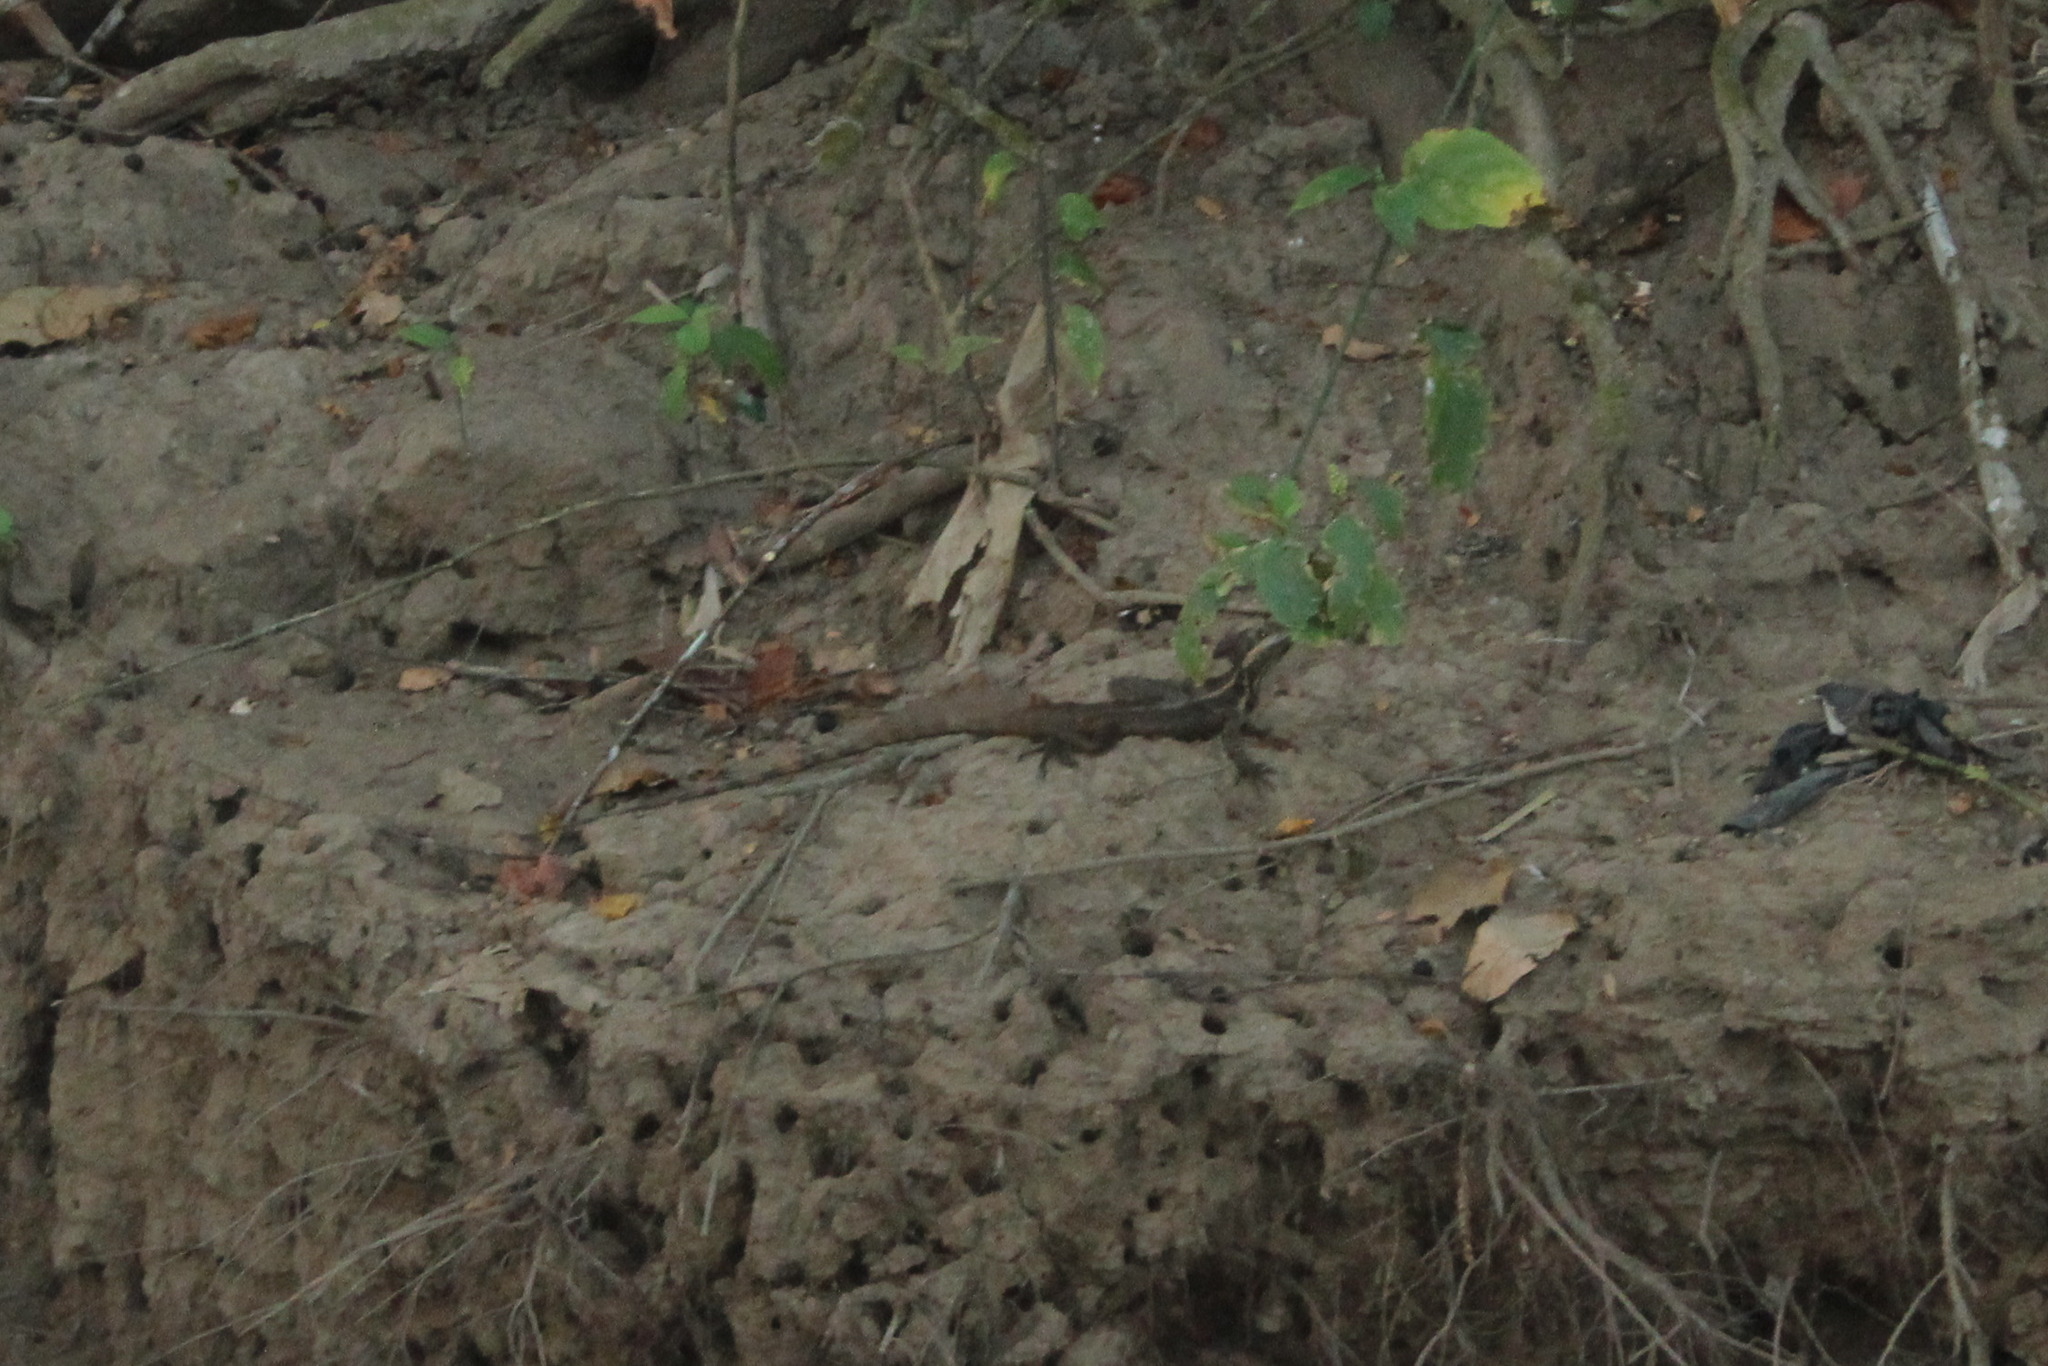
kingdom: Animalia
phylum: Chordata
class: Squamata
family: Corytophanidae
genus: Basiliscus
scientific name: Basiliscus basiliscus
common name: Common basilisk
